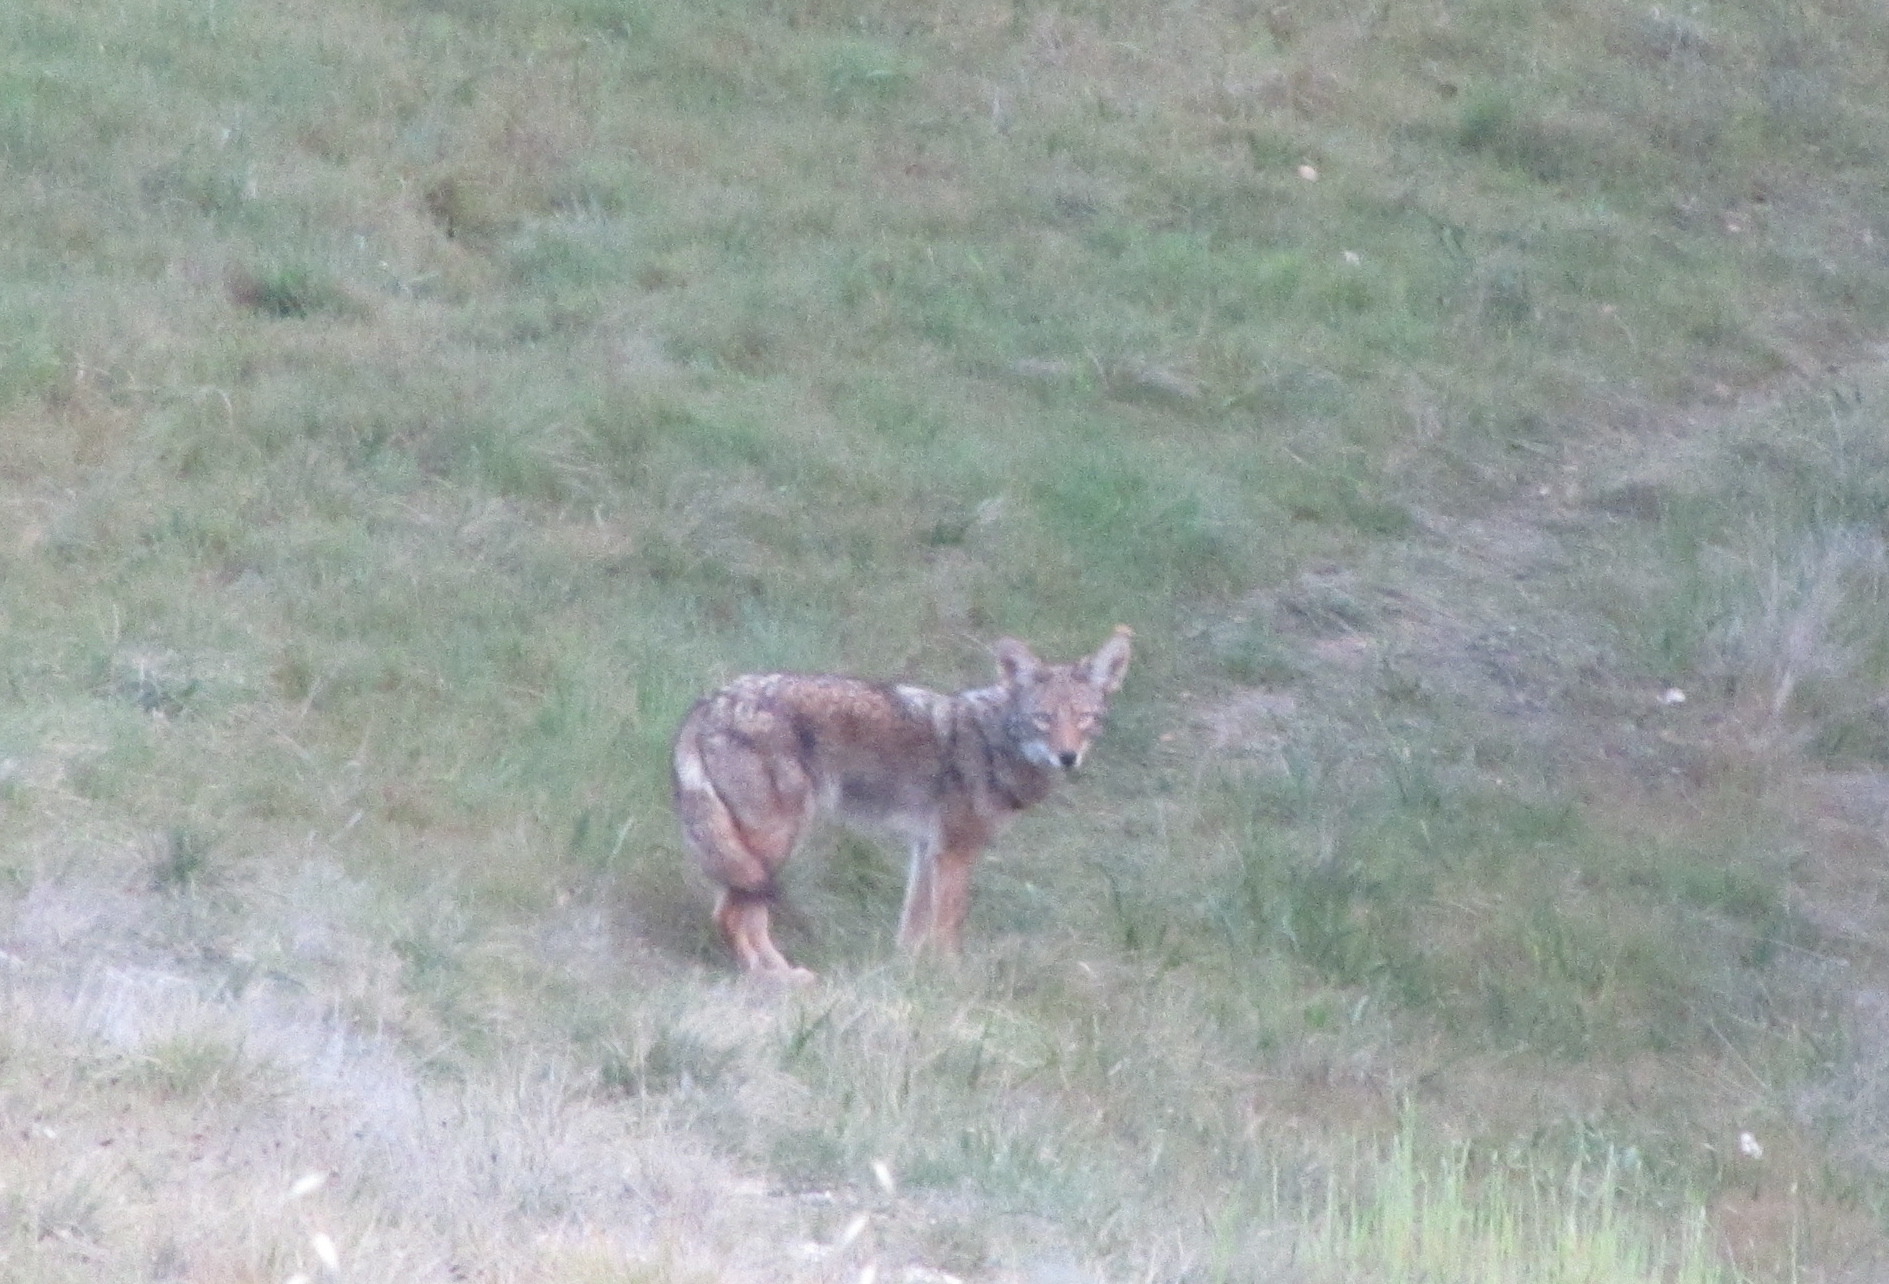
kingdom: Animalia
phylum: Chordata
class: Mammalia
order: Carnivora
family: Canidae
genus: Canis
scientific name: Canis latrans
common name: Coyote
